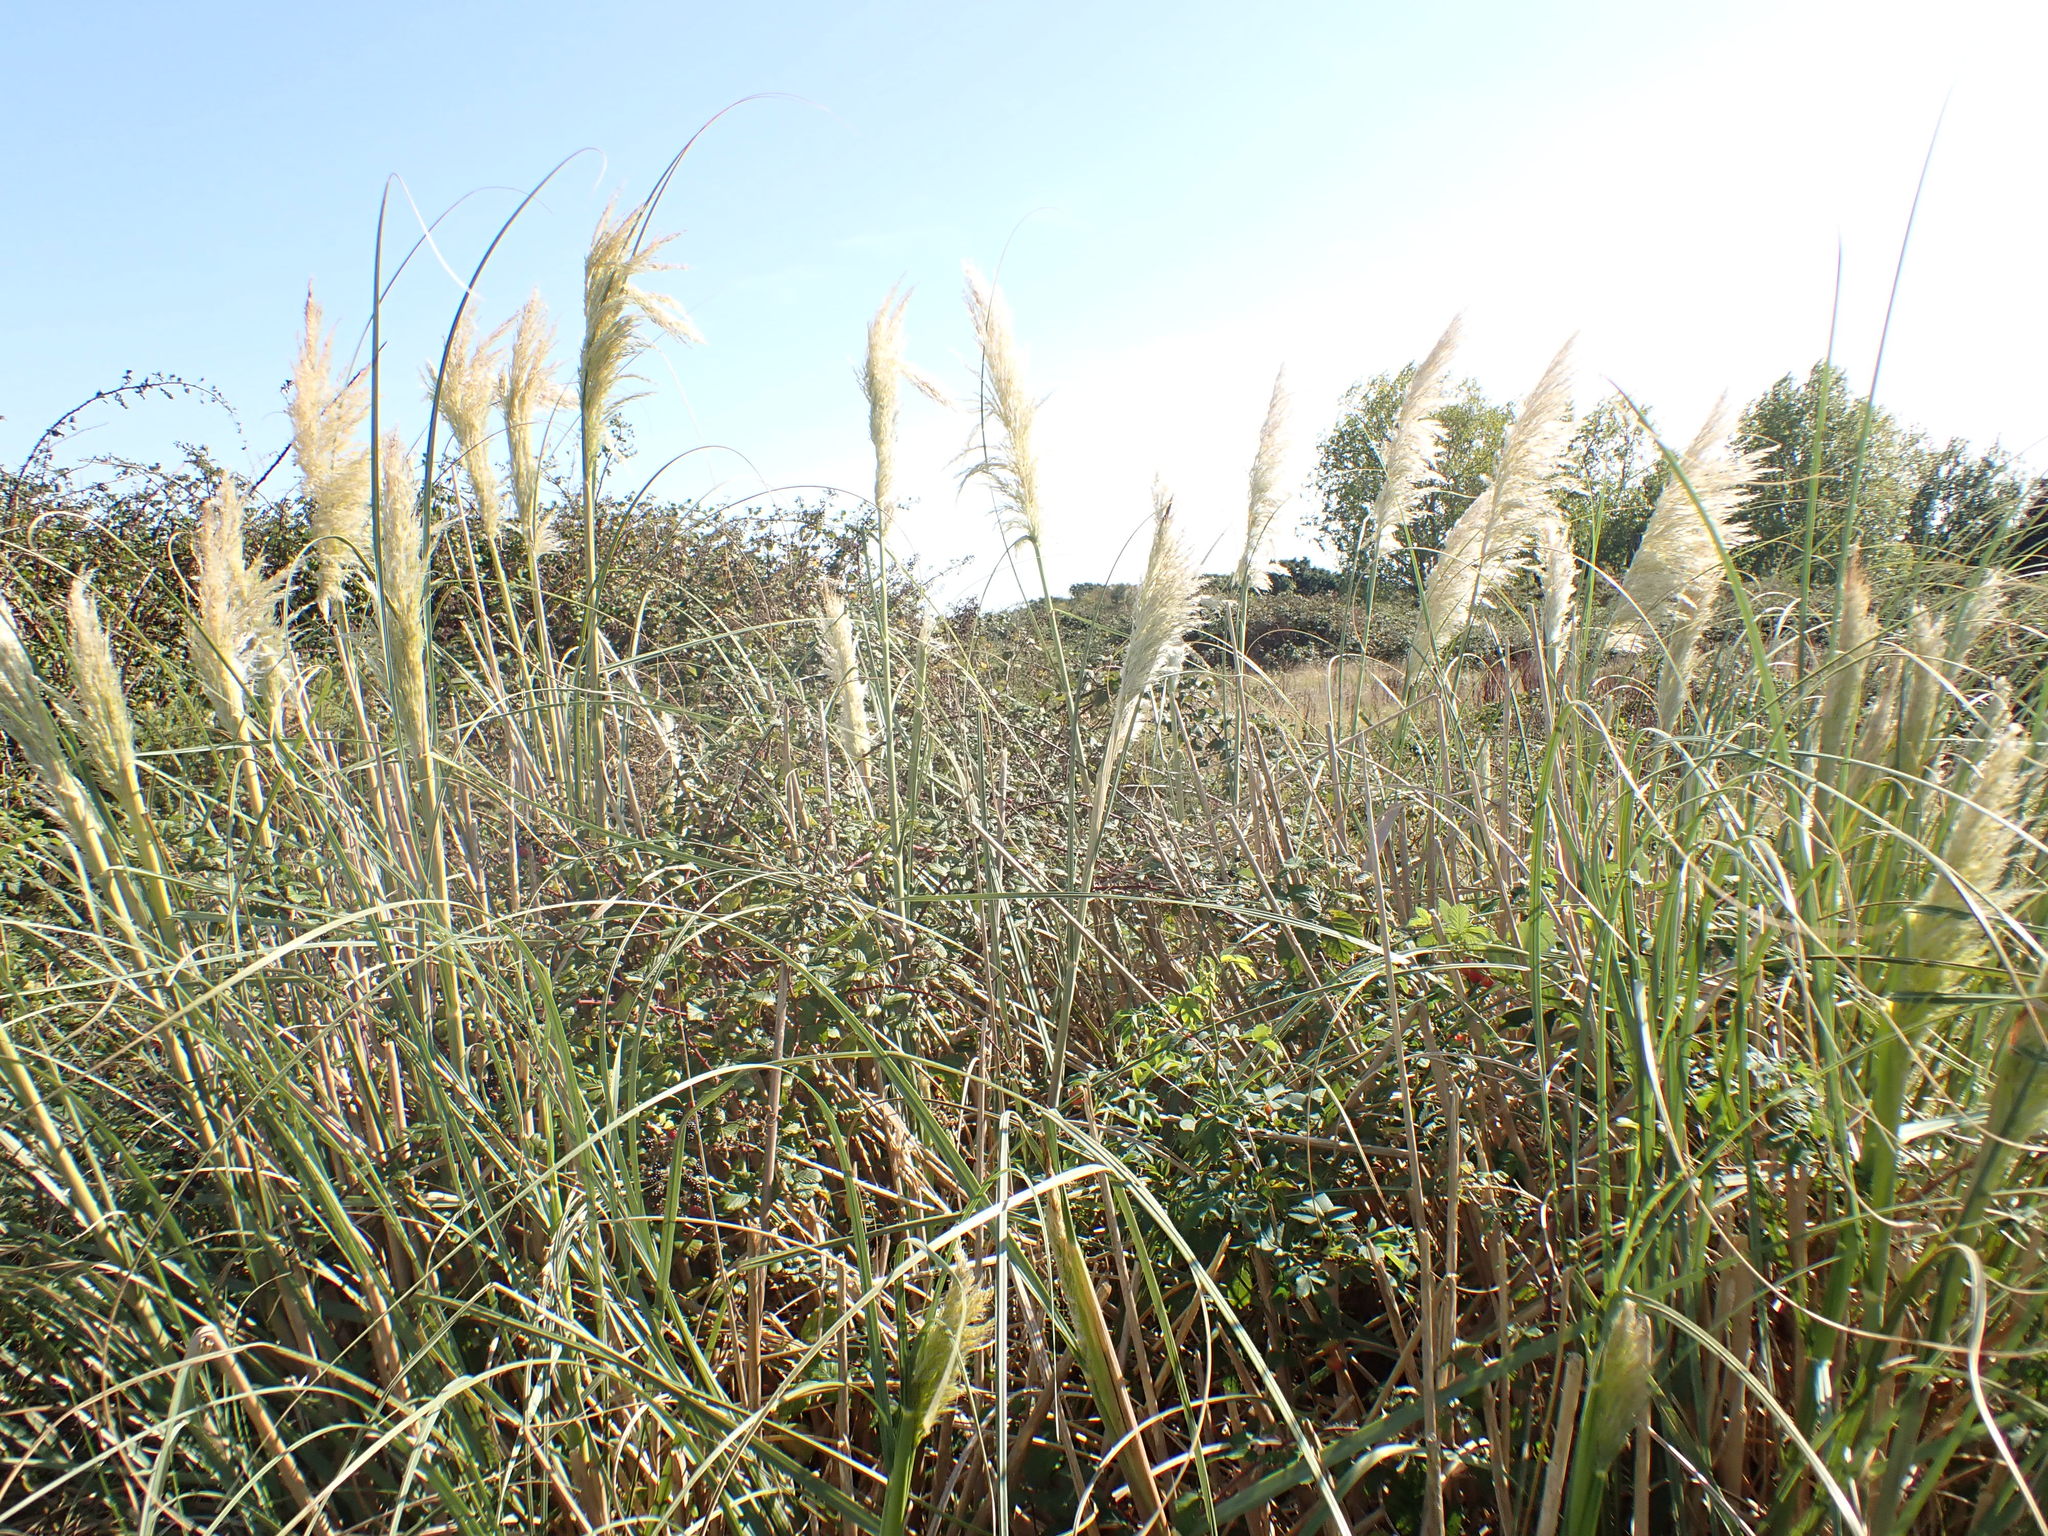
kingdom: Plantae
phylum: Tracheophyta
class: Liliopsida
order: Poales
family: Poaceae
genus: Cortaderia
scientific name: Cortaderia selloana
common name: Uruguayan pampas grass
